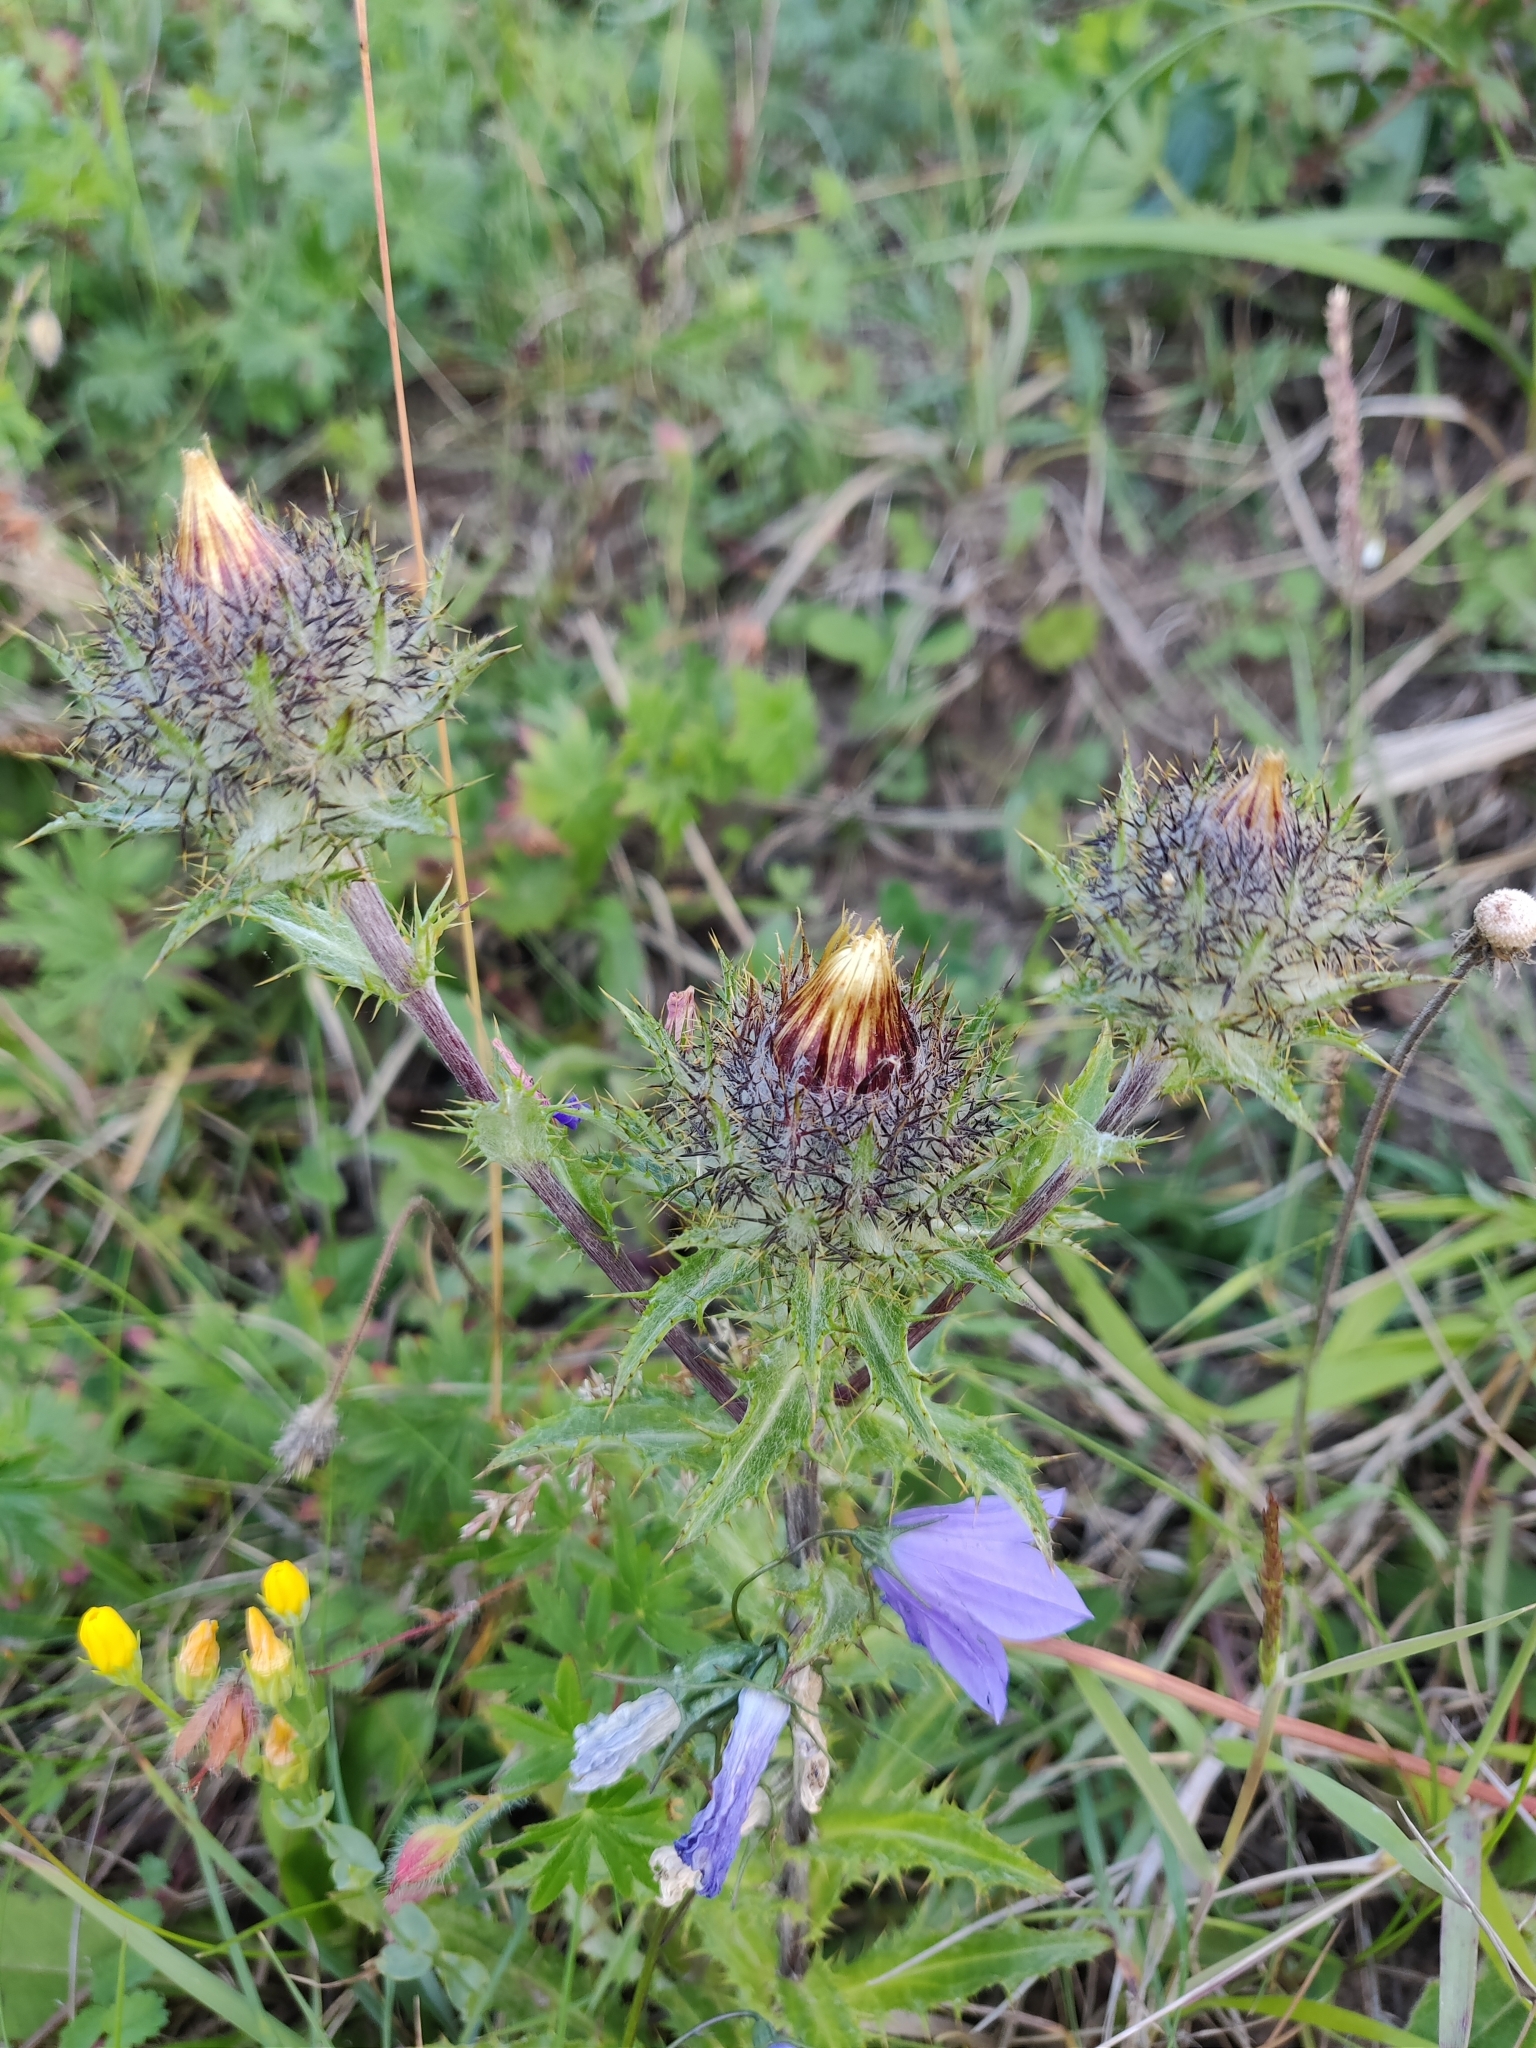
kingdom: Plantae
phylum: Tracheophyta
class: Magnoliopsida
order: Asterales
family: Asteraceae
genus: Carlina
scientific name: Carlina vulgaris
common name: Carline thistle
